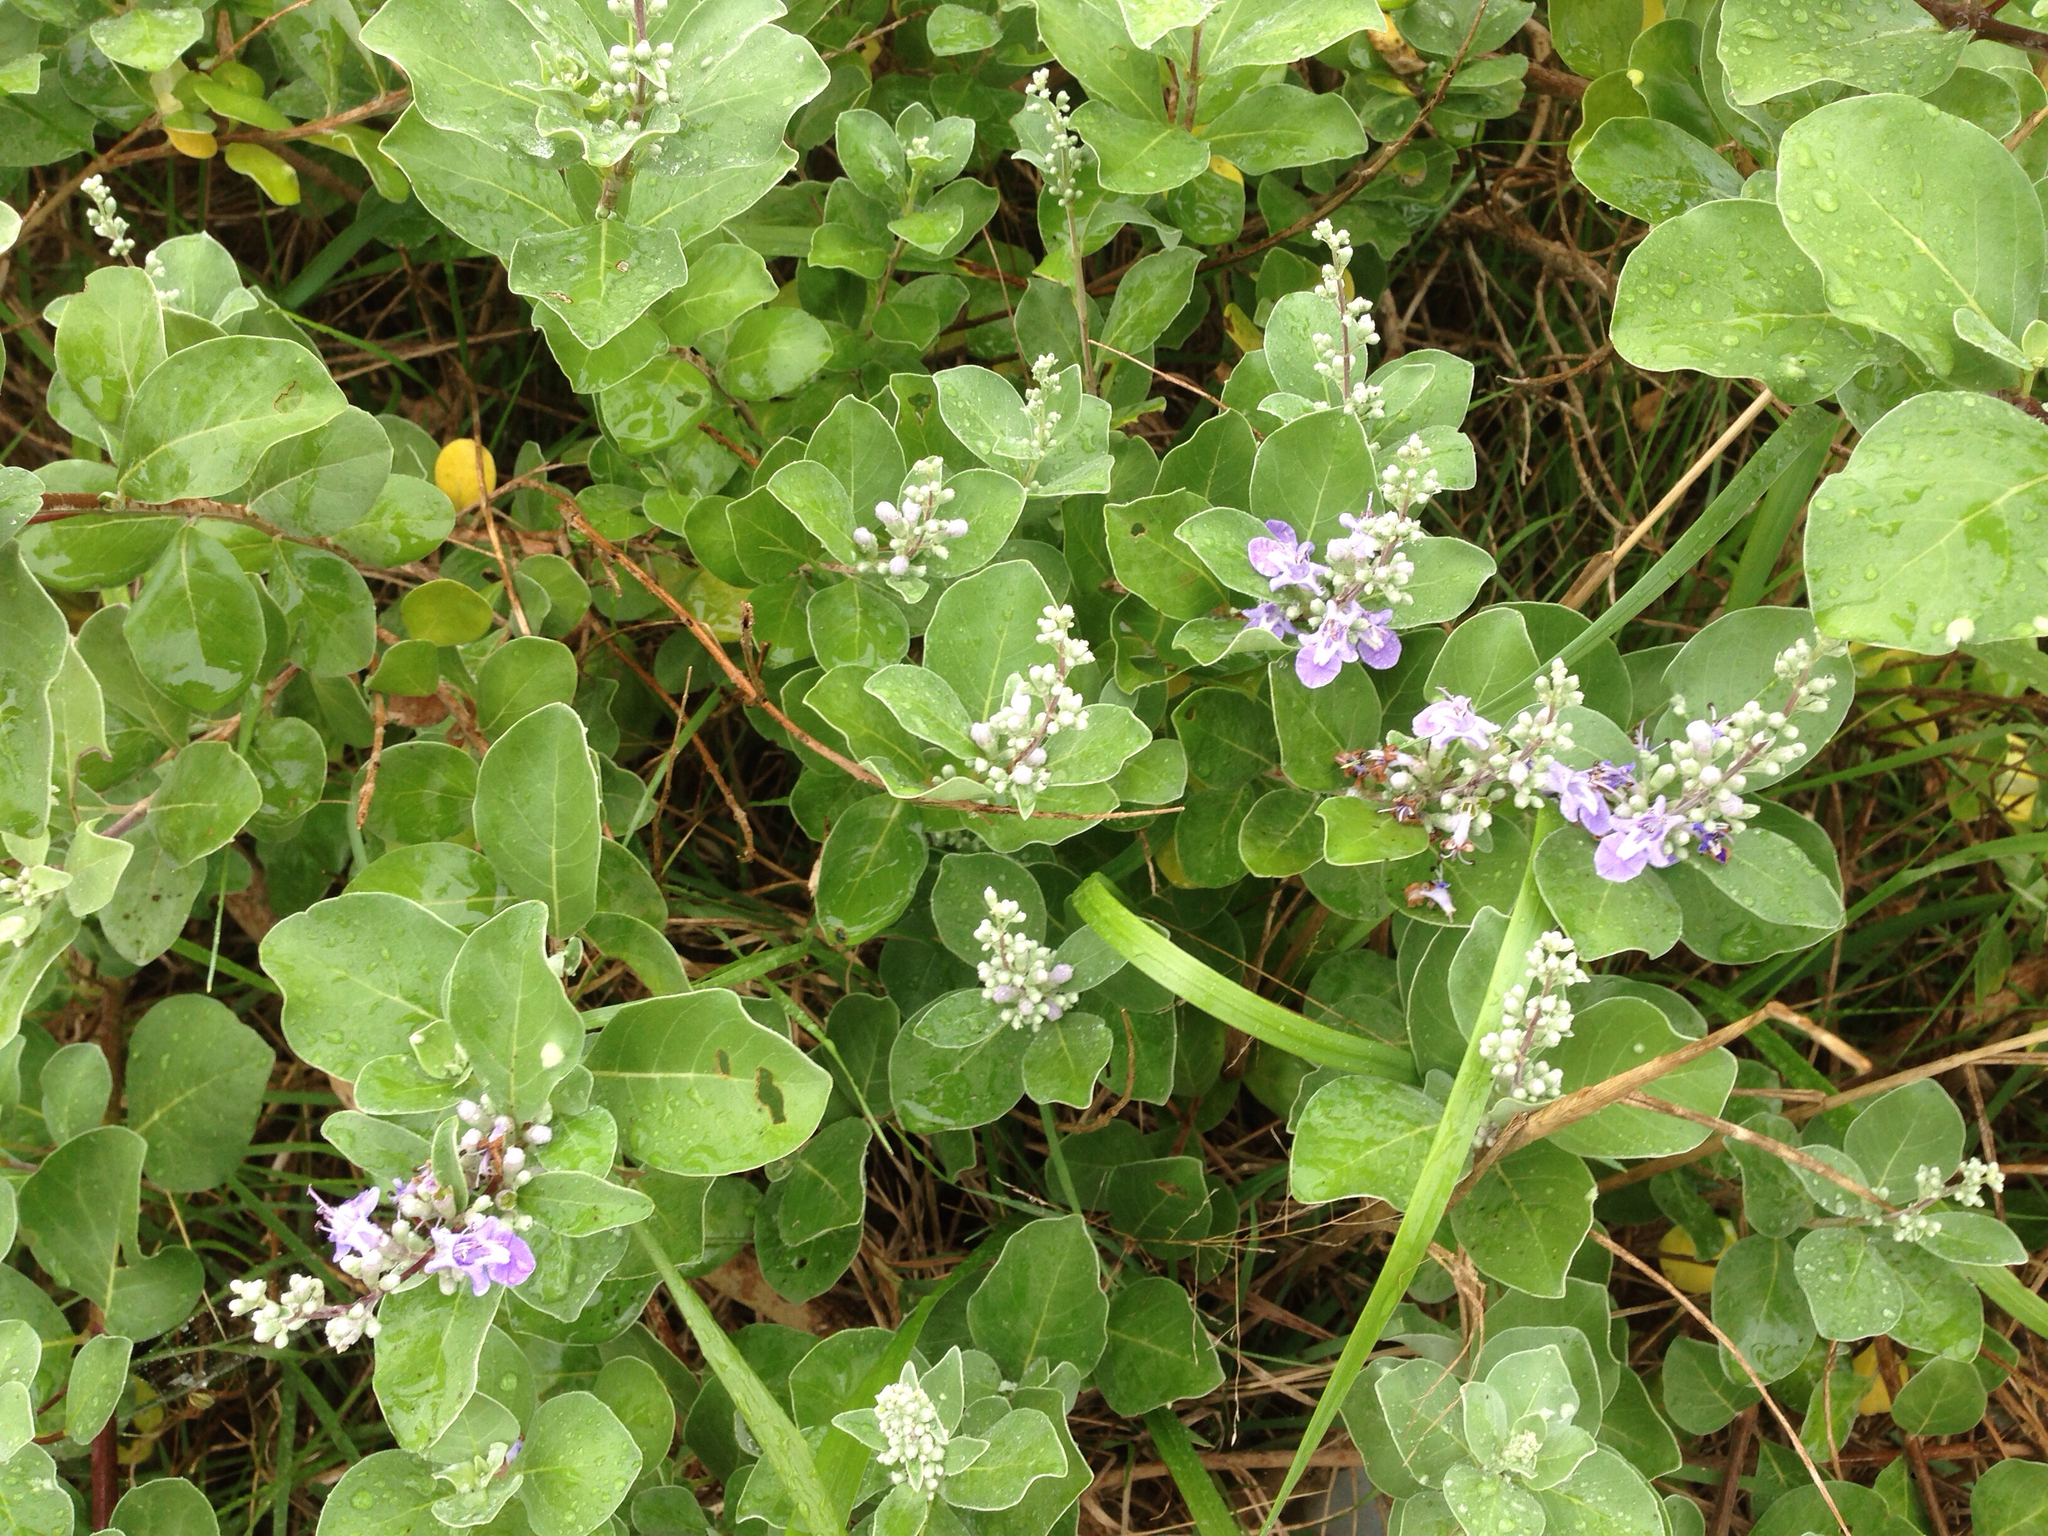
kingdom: Plantae
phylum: Tracheophyta
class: Magnoliopsida
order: Lamiales
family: Lamiaceae
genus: Vitex
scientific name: Vitex rotundifolia
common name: Beach vitex
